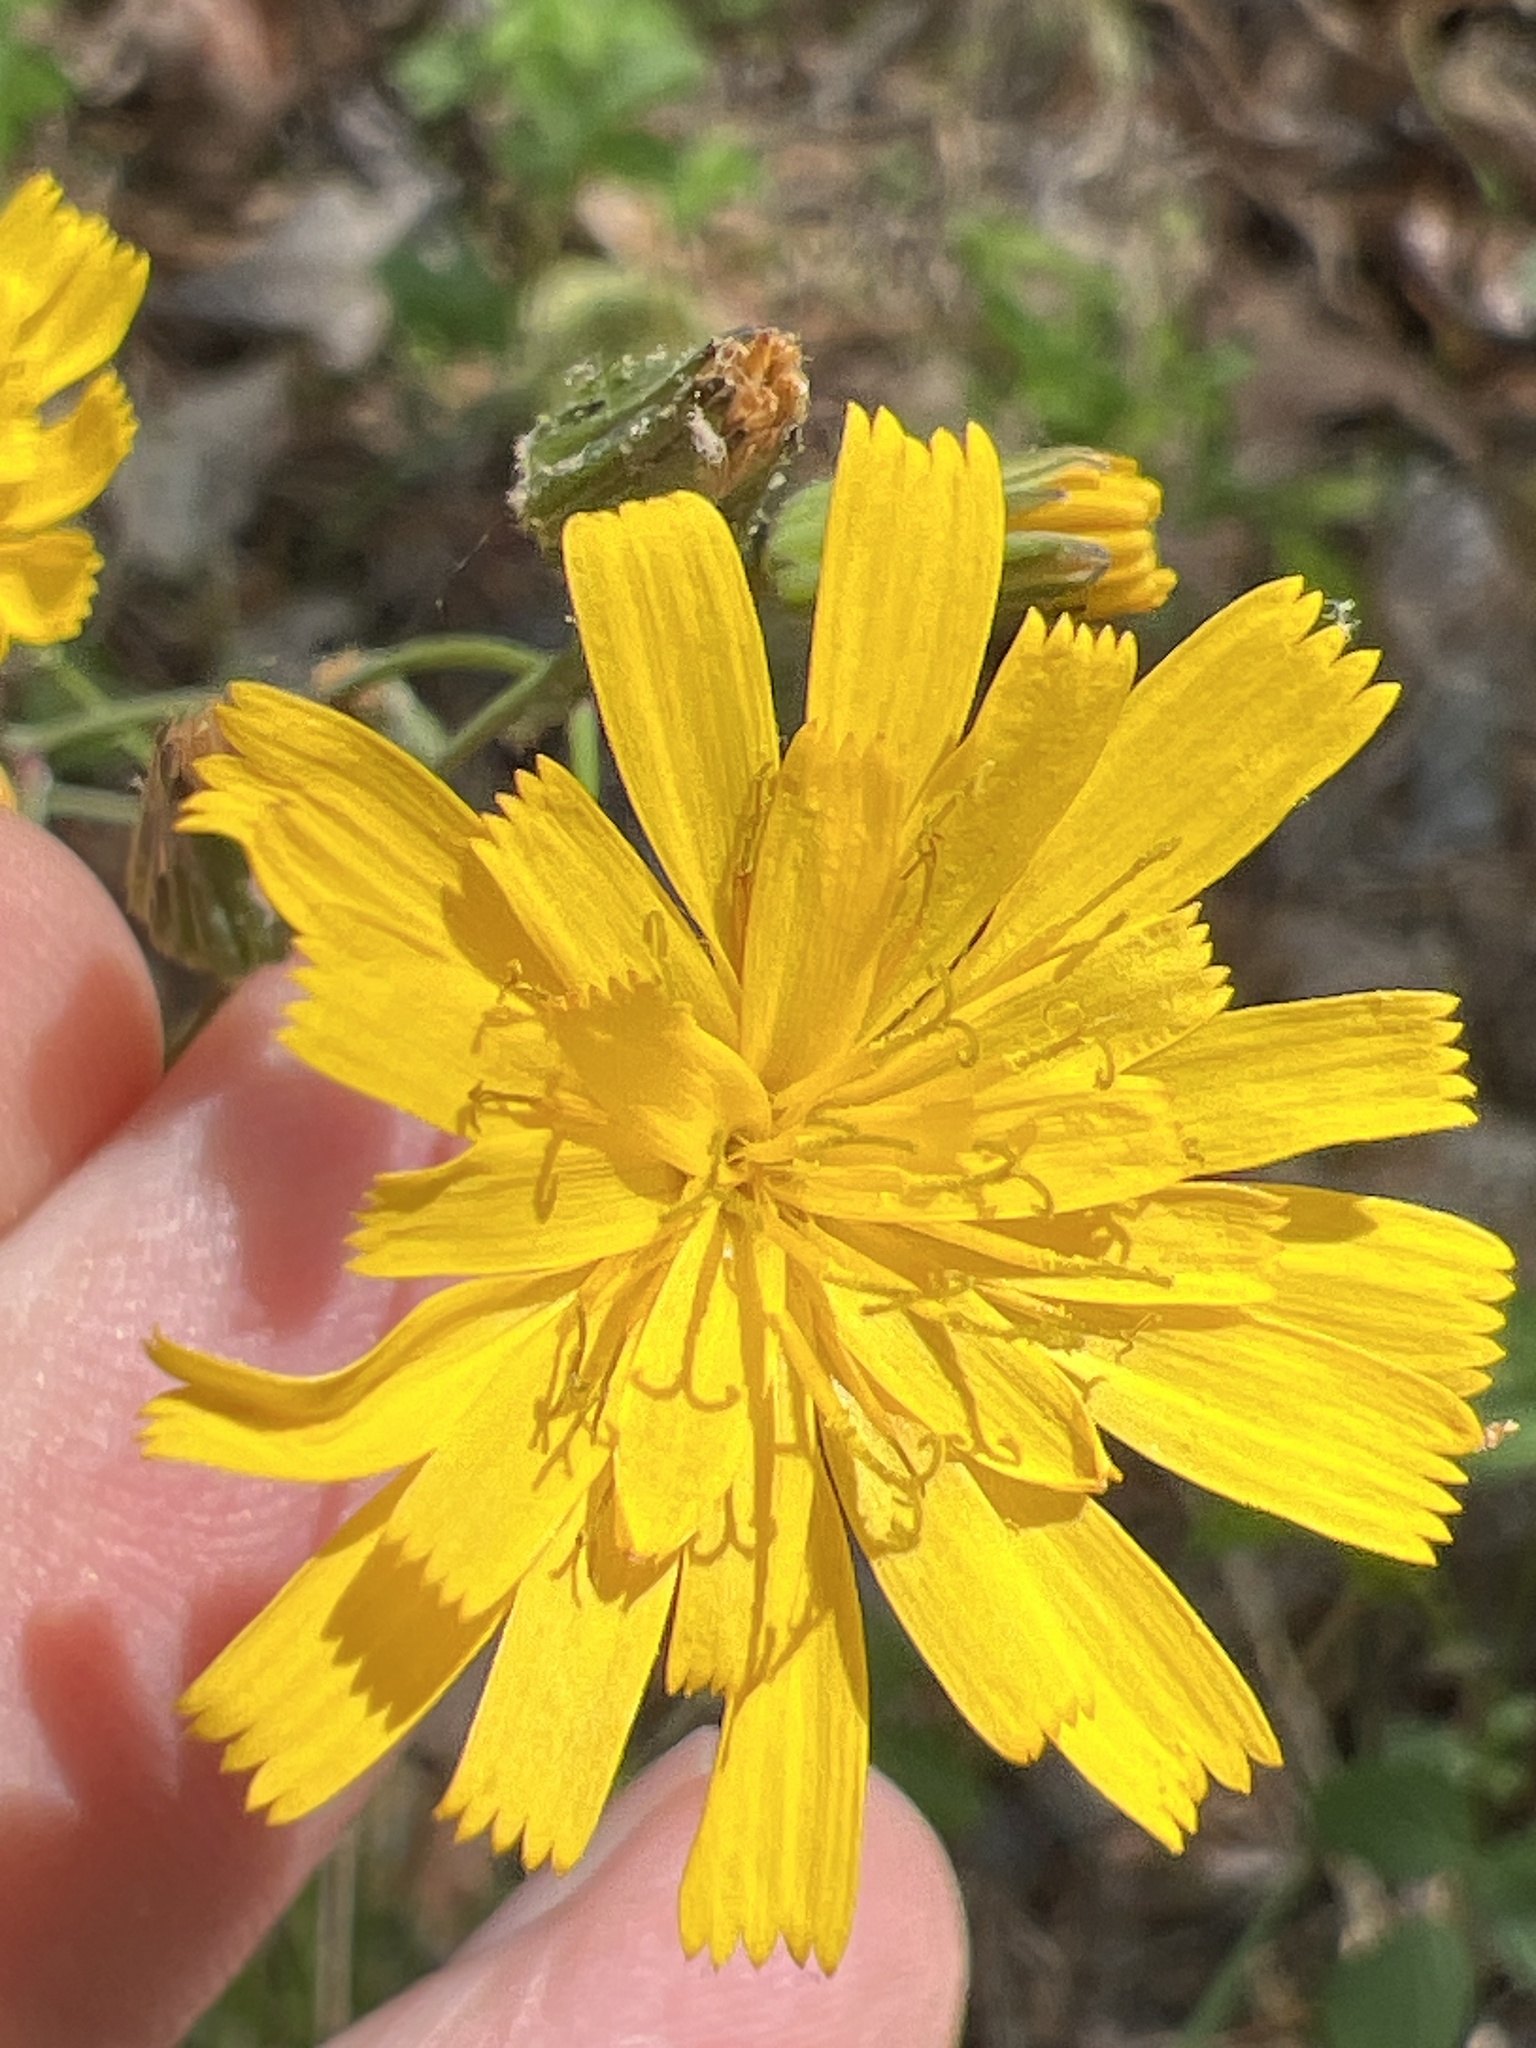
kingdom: Plantae
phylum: Tracheophyta
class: Magnoliopsida
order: Asterales
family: Asteraceae
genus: Hieracium
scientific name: Hieracium venosum
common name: Rattlesnake hawkweed
